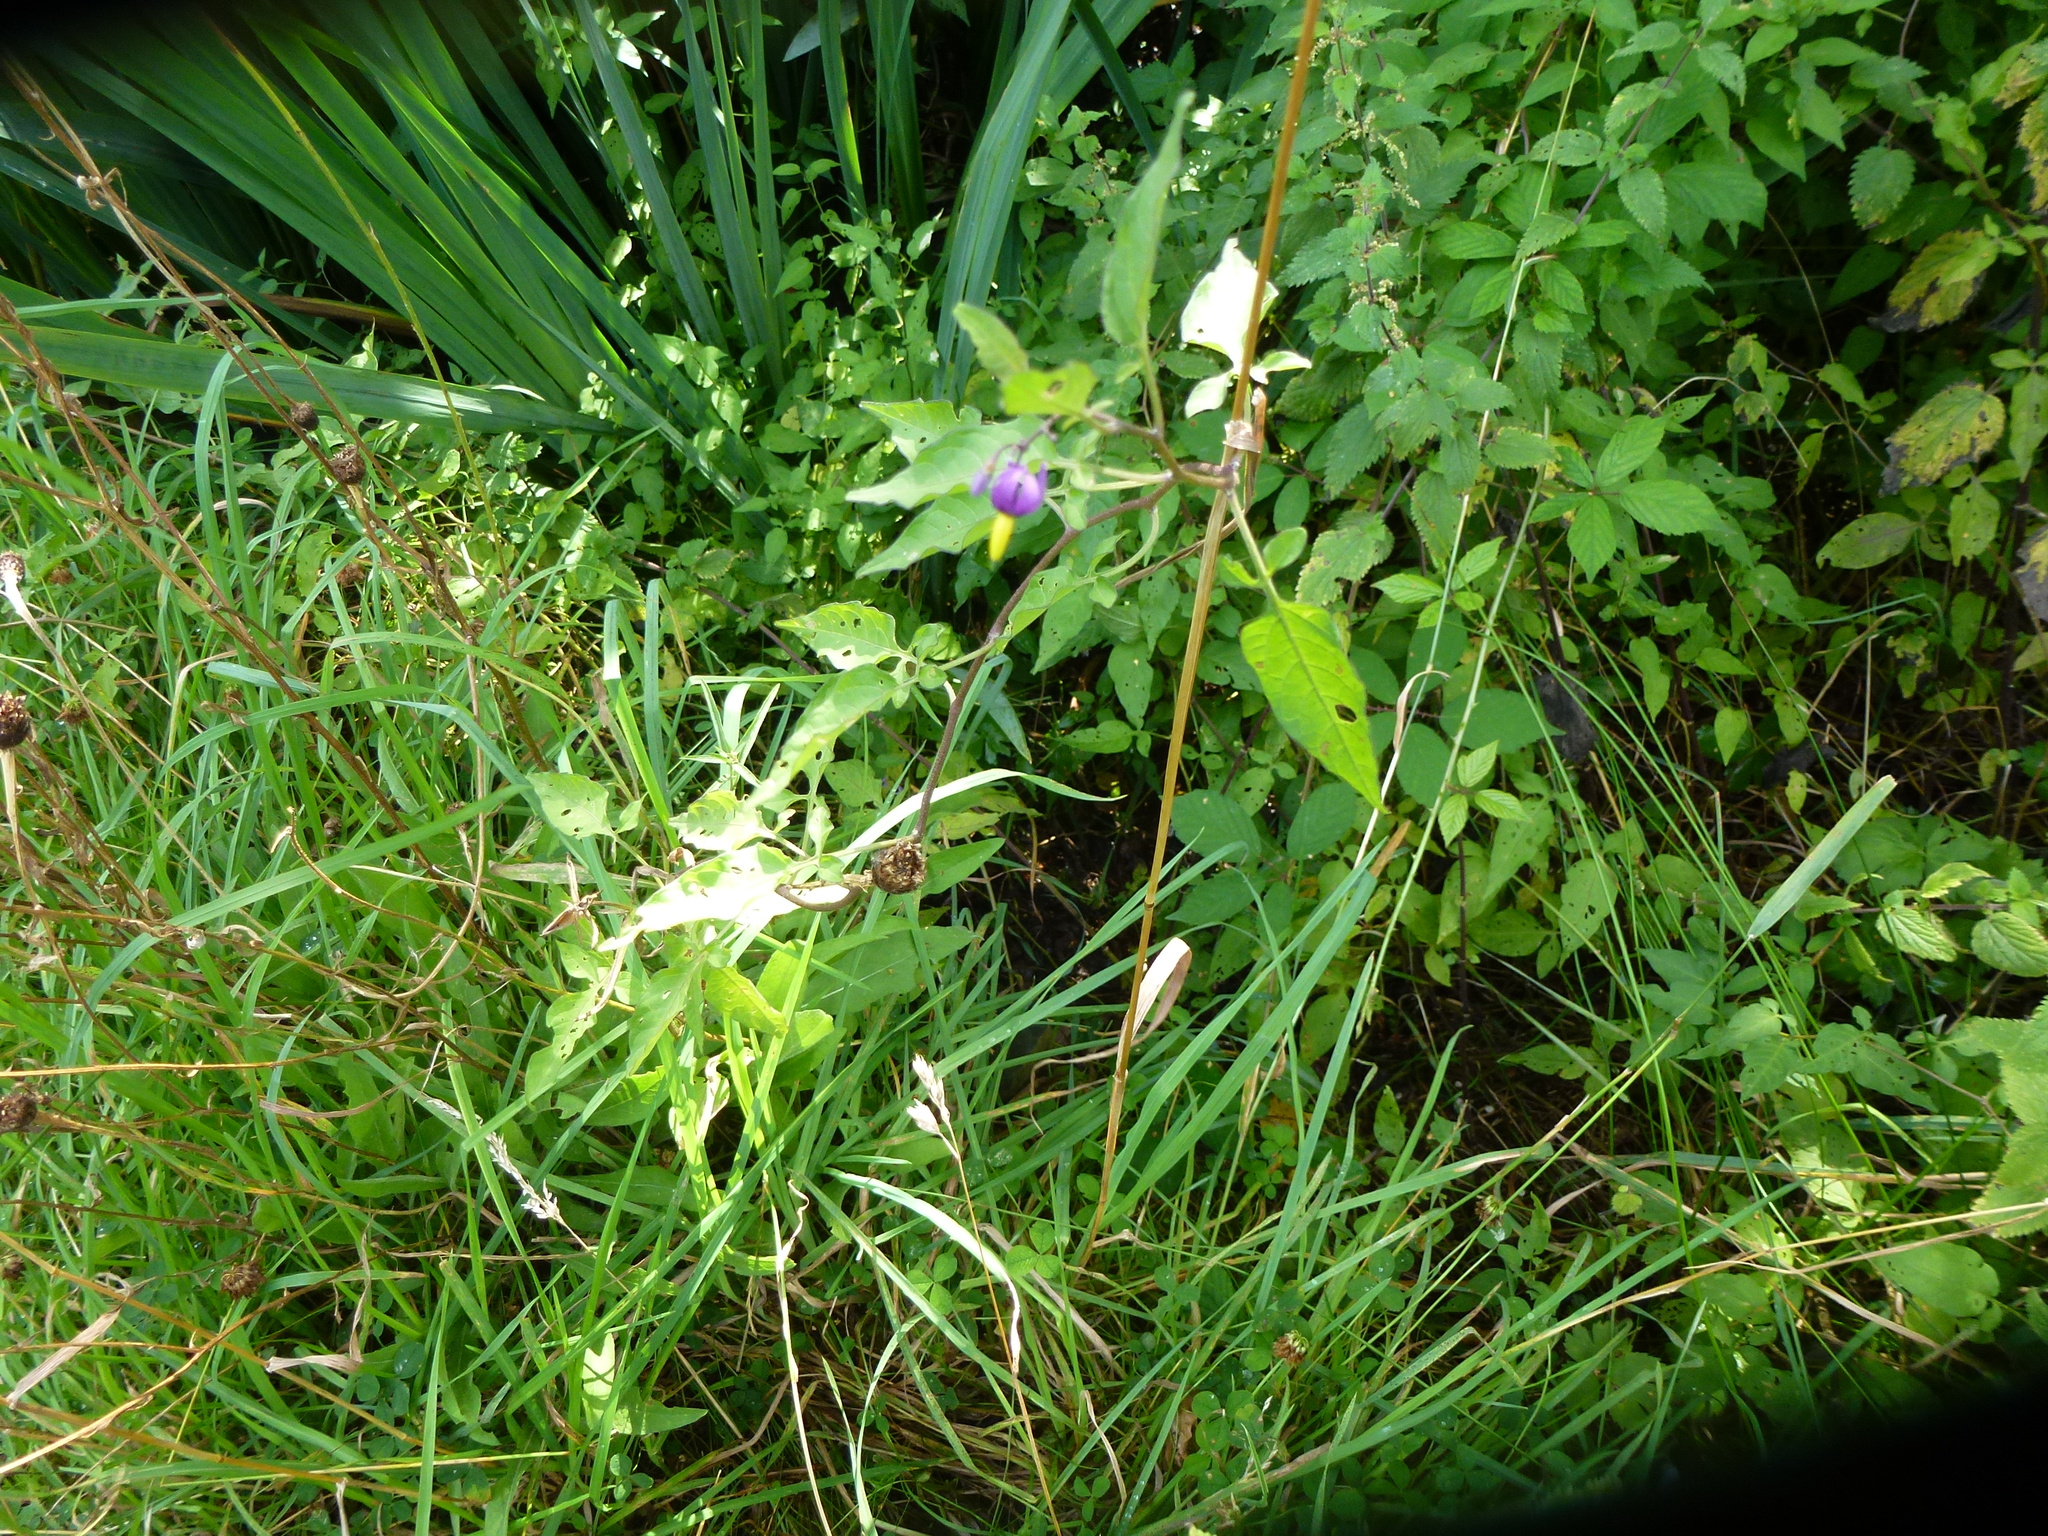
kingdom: Plantae
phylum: Tracheophyta
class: Magnoliopsida
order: Solanales
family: Solanaceae
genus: Solanum
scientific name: Solanum dulcamara
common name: Climbing nightshade
